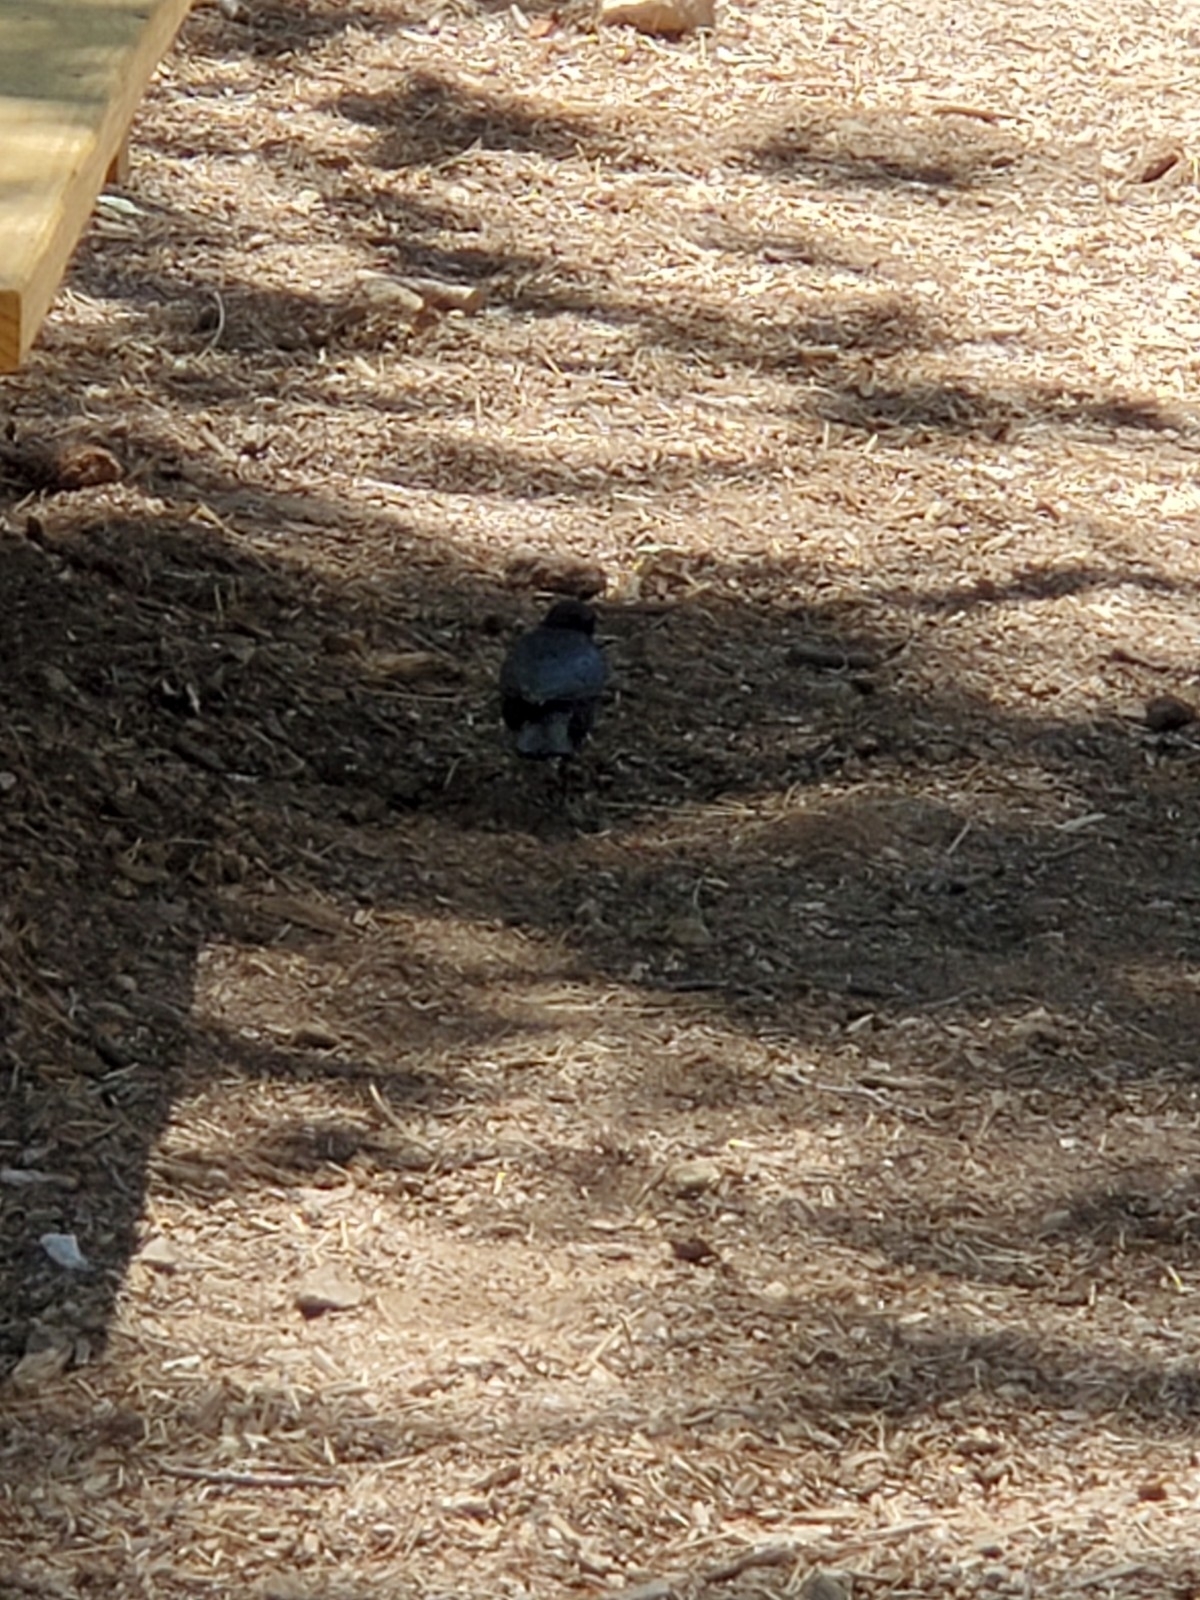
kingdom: Animalia
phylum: Chordata
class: Aves
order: Passeriformes
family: Icteridae
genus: Euphagus
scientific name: Euphagus cyanocephalus
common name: Brewer's blackbird
